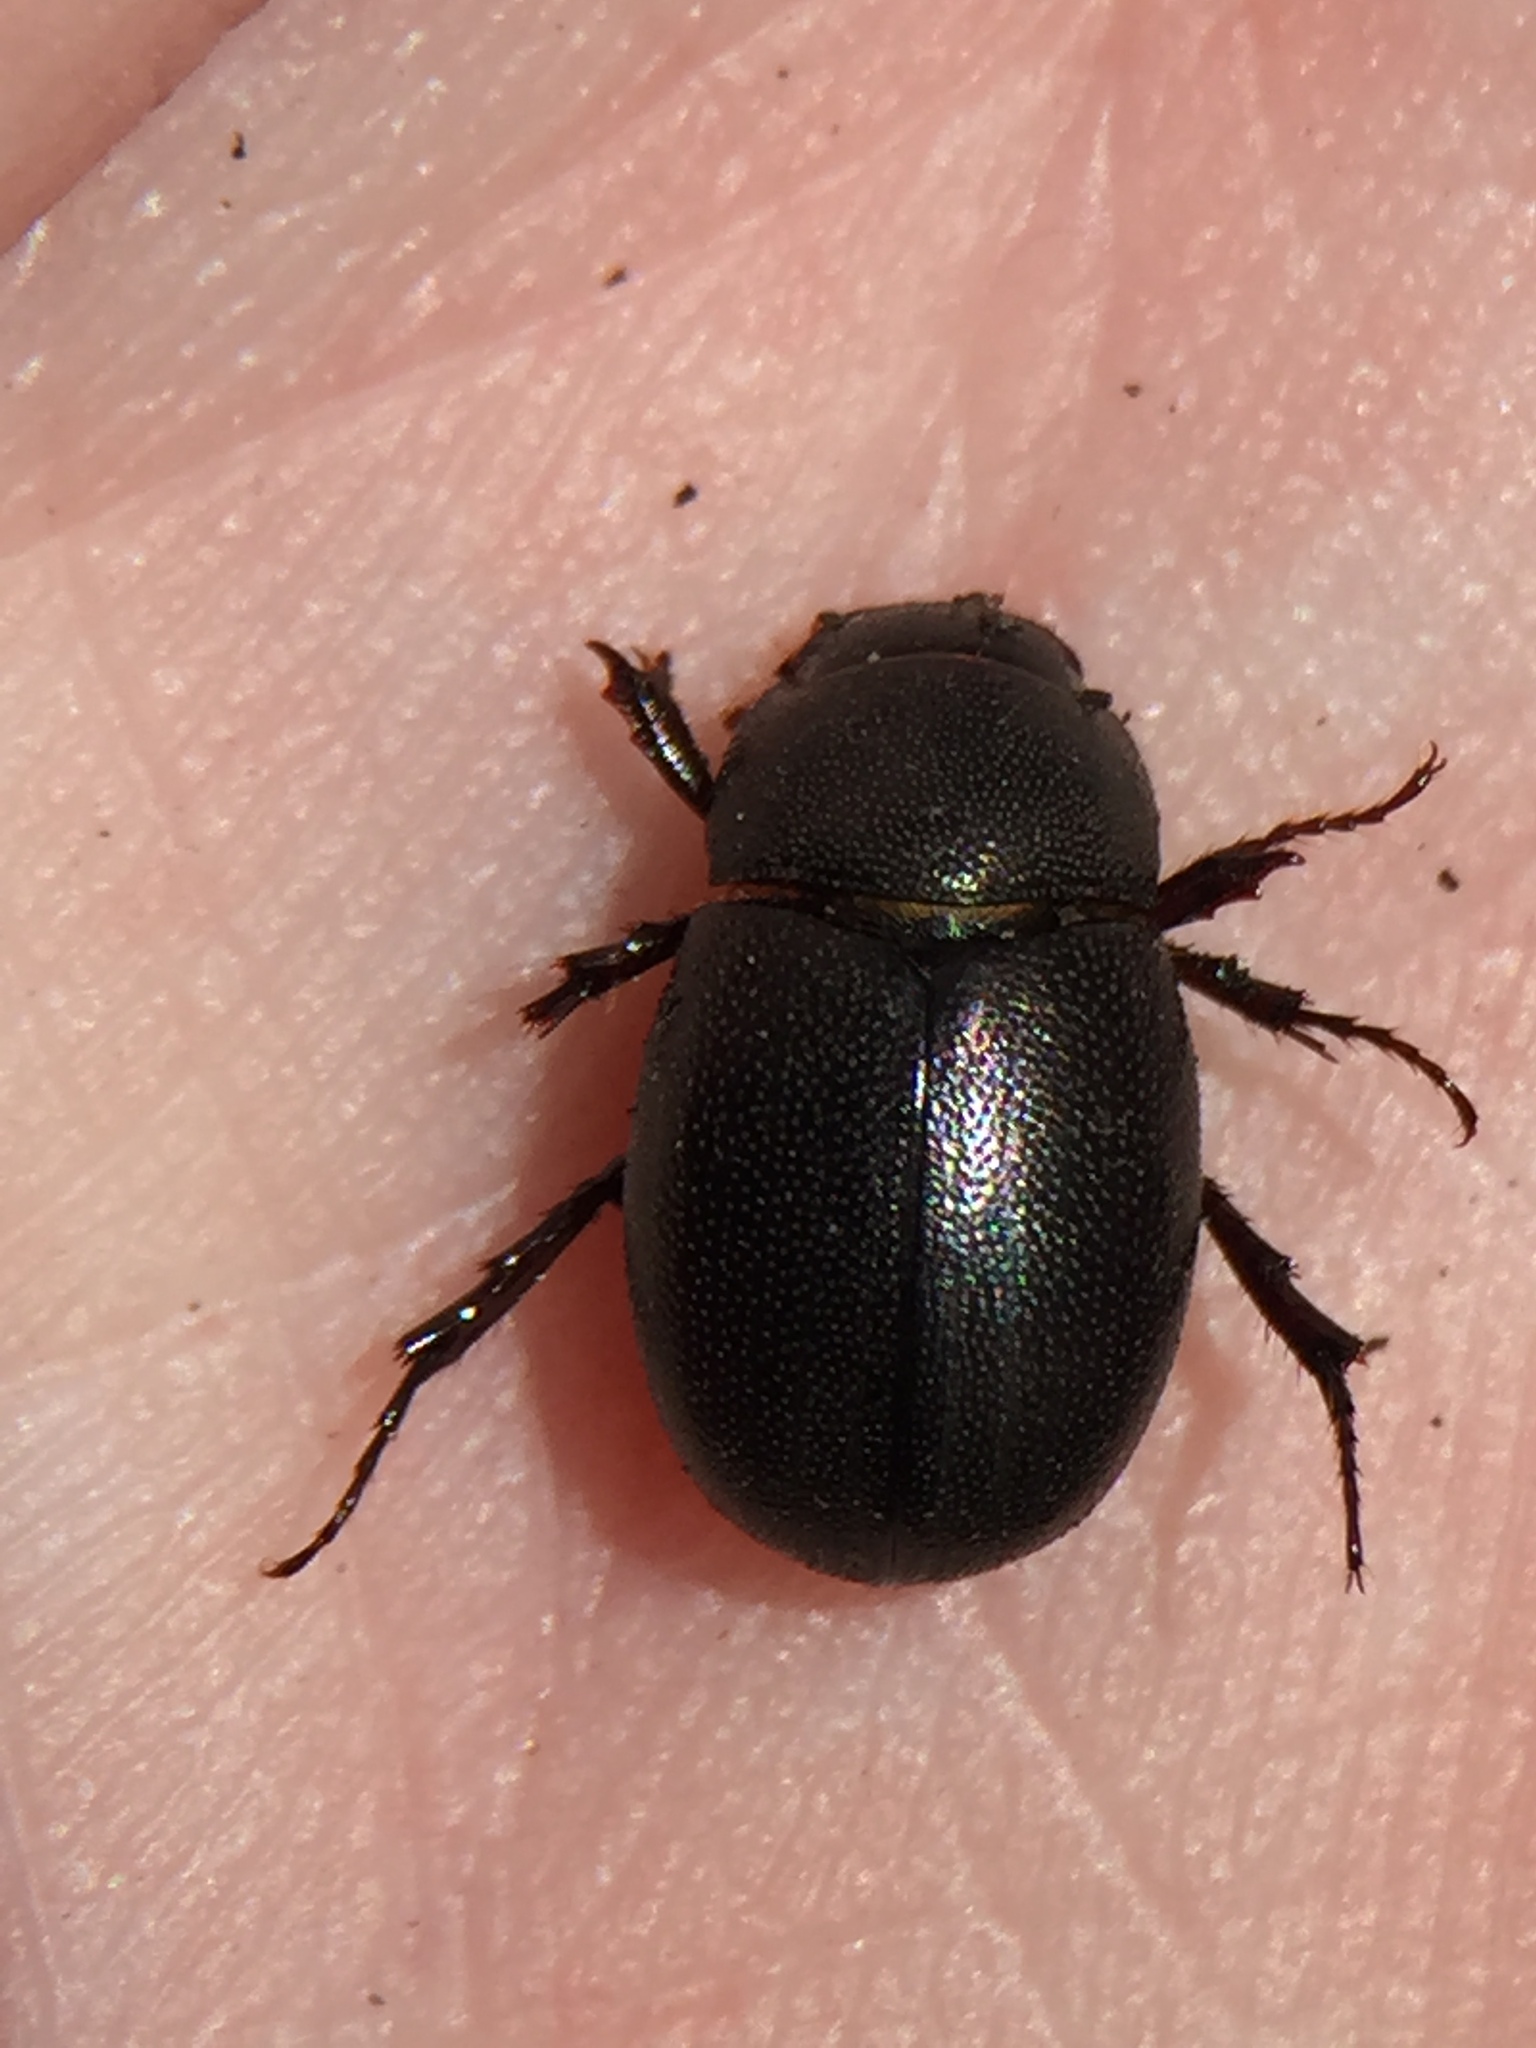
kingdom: Animalia
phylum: Arthropoda
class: Insecta
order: Coleoptera
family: Scarabaeidae
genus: Gnaphalopoda
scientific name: Gnaphalopoda piceus
